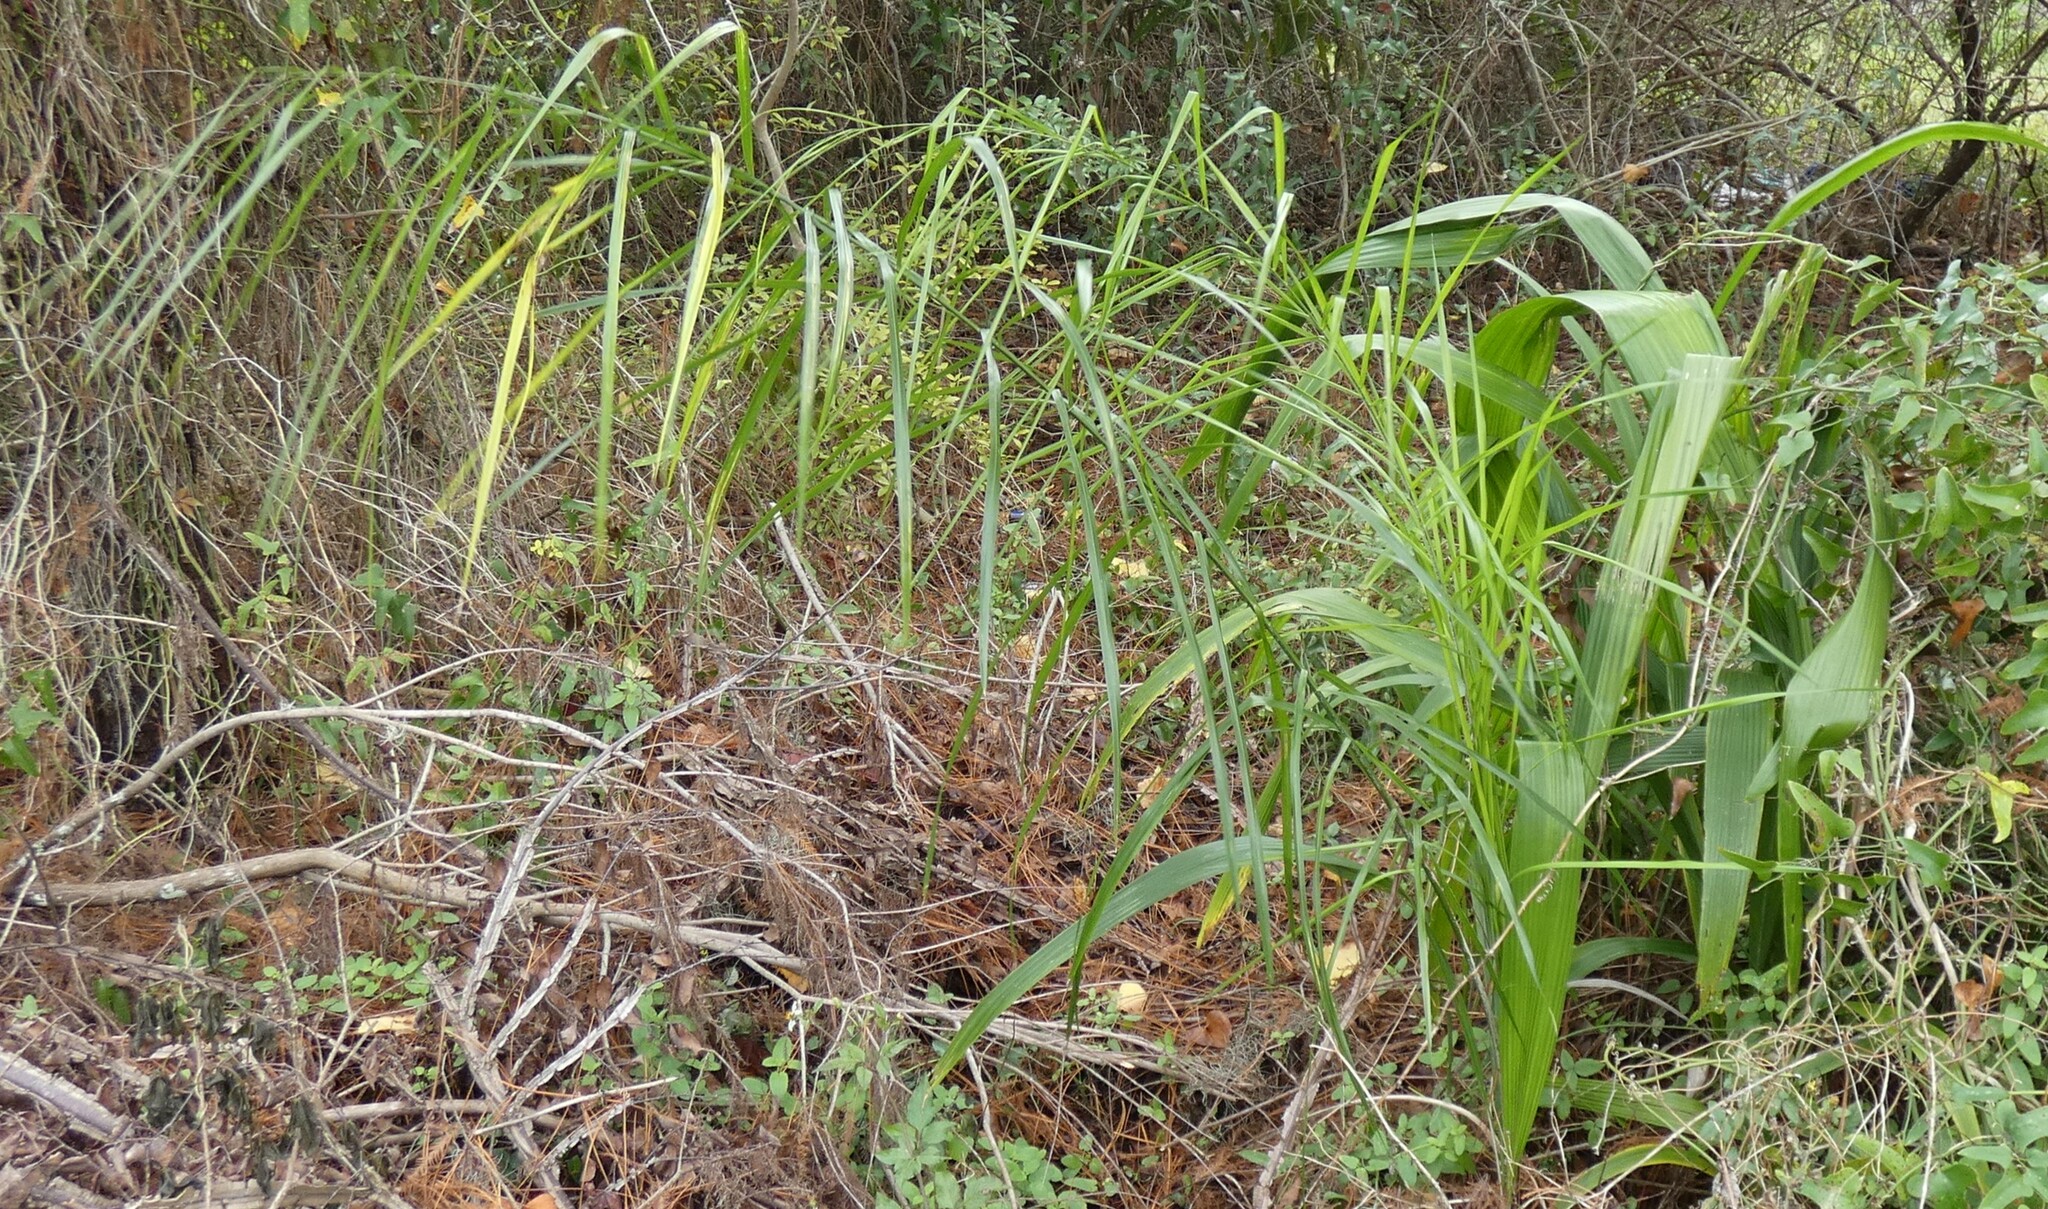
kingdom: Plantae
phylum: Tracheophyta
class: Liliopsida
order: Arecales
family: Arecaceae
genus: Syagrus
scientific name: Syagrus romanzoffiana
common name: Queen palm
